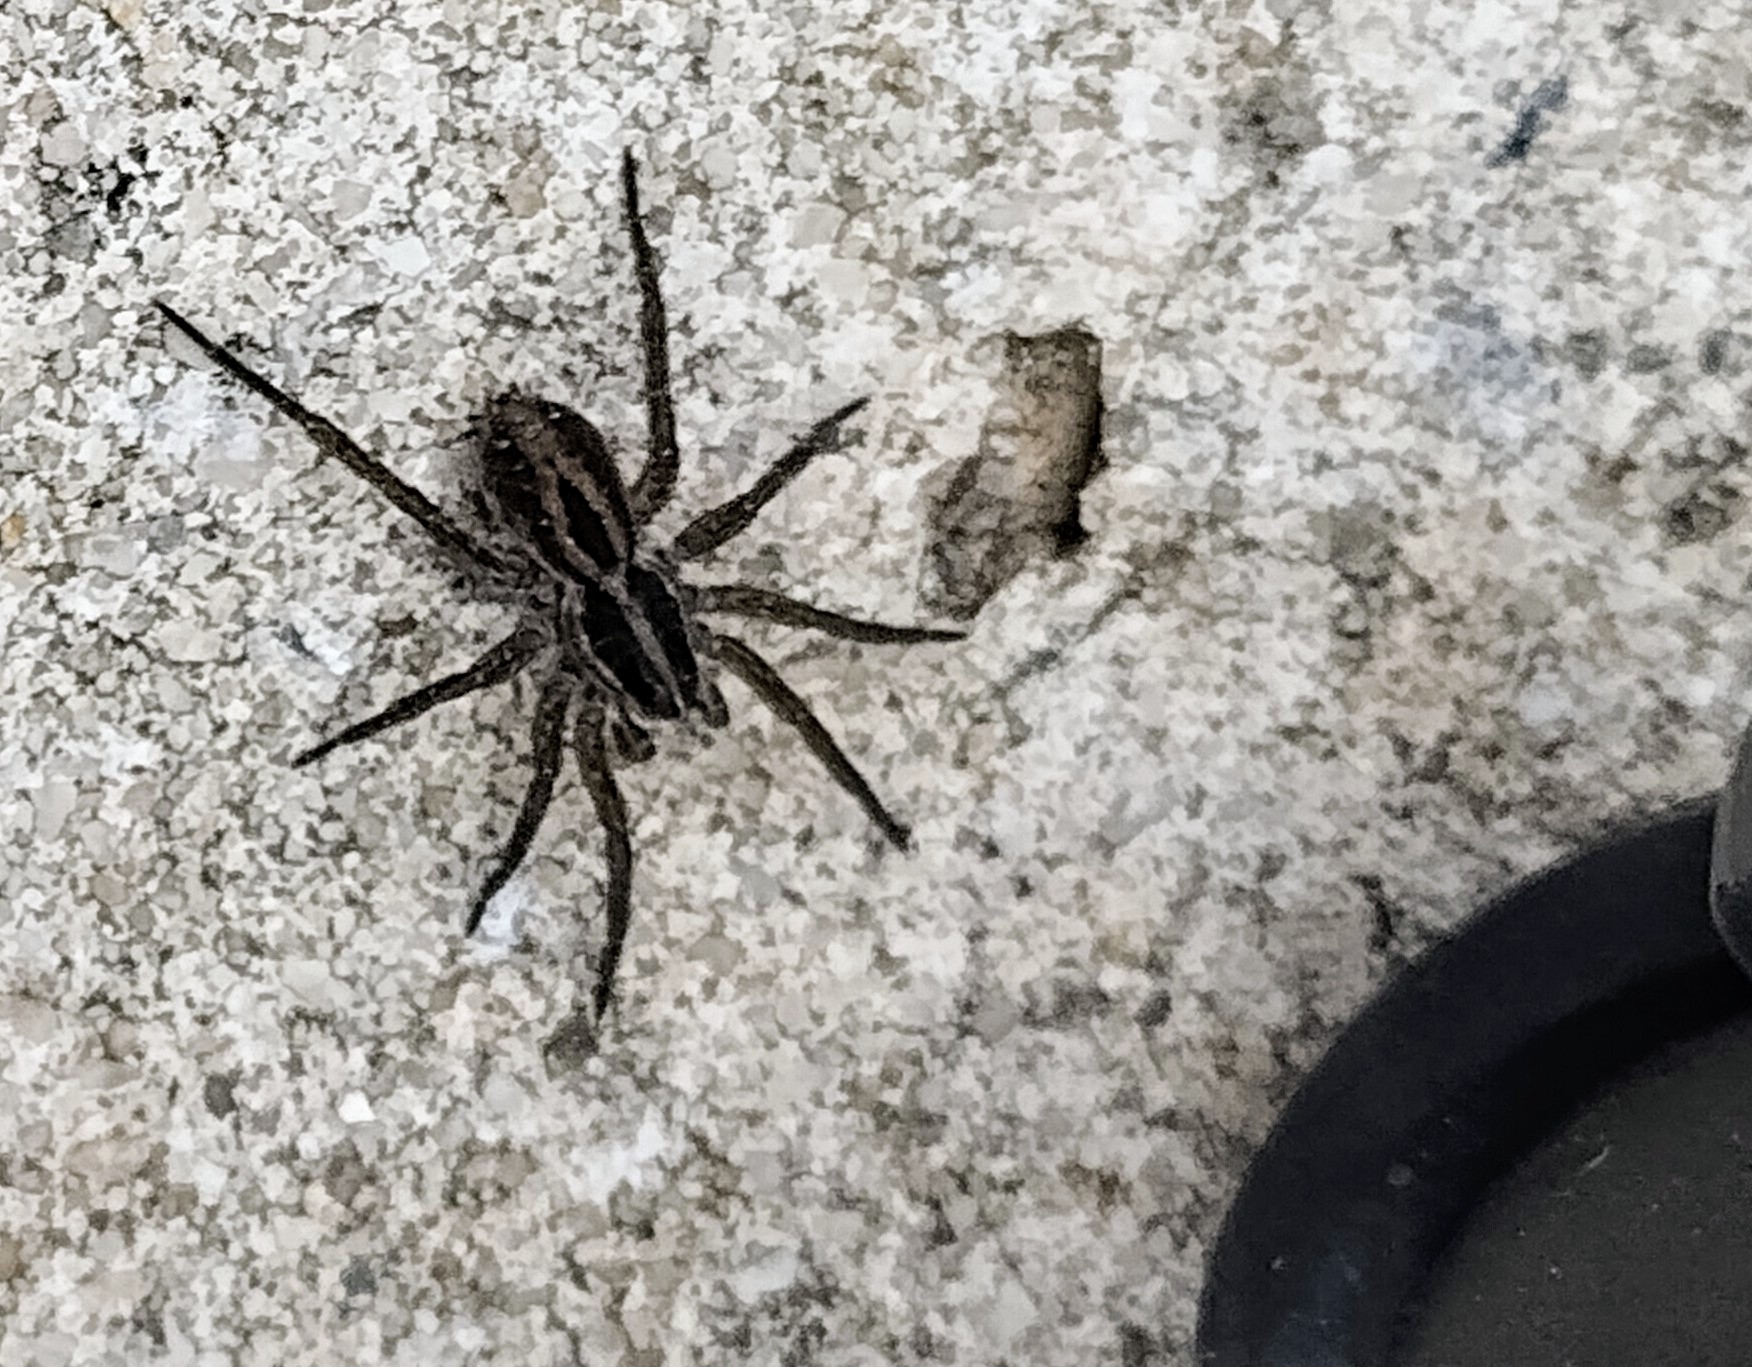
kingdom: Animalia
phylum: Arthropoda
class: Arachnida
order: Araneae
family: Lycosidae
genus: Tigrosa
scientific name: Tigrosa annexa
